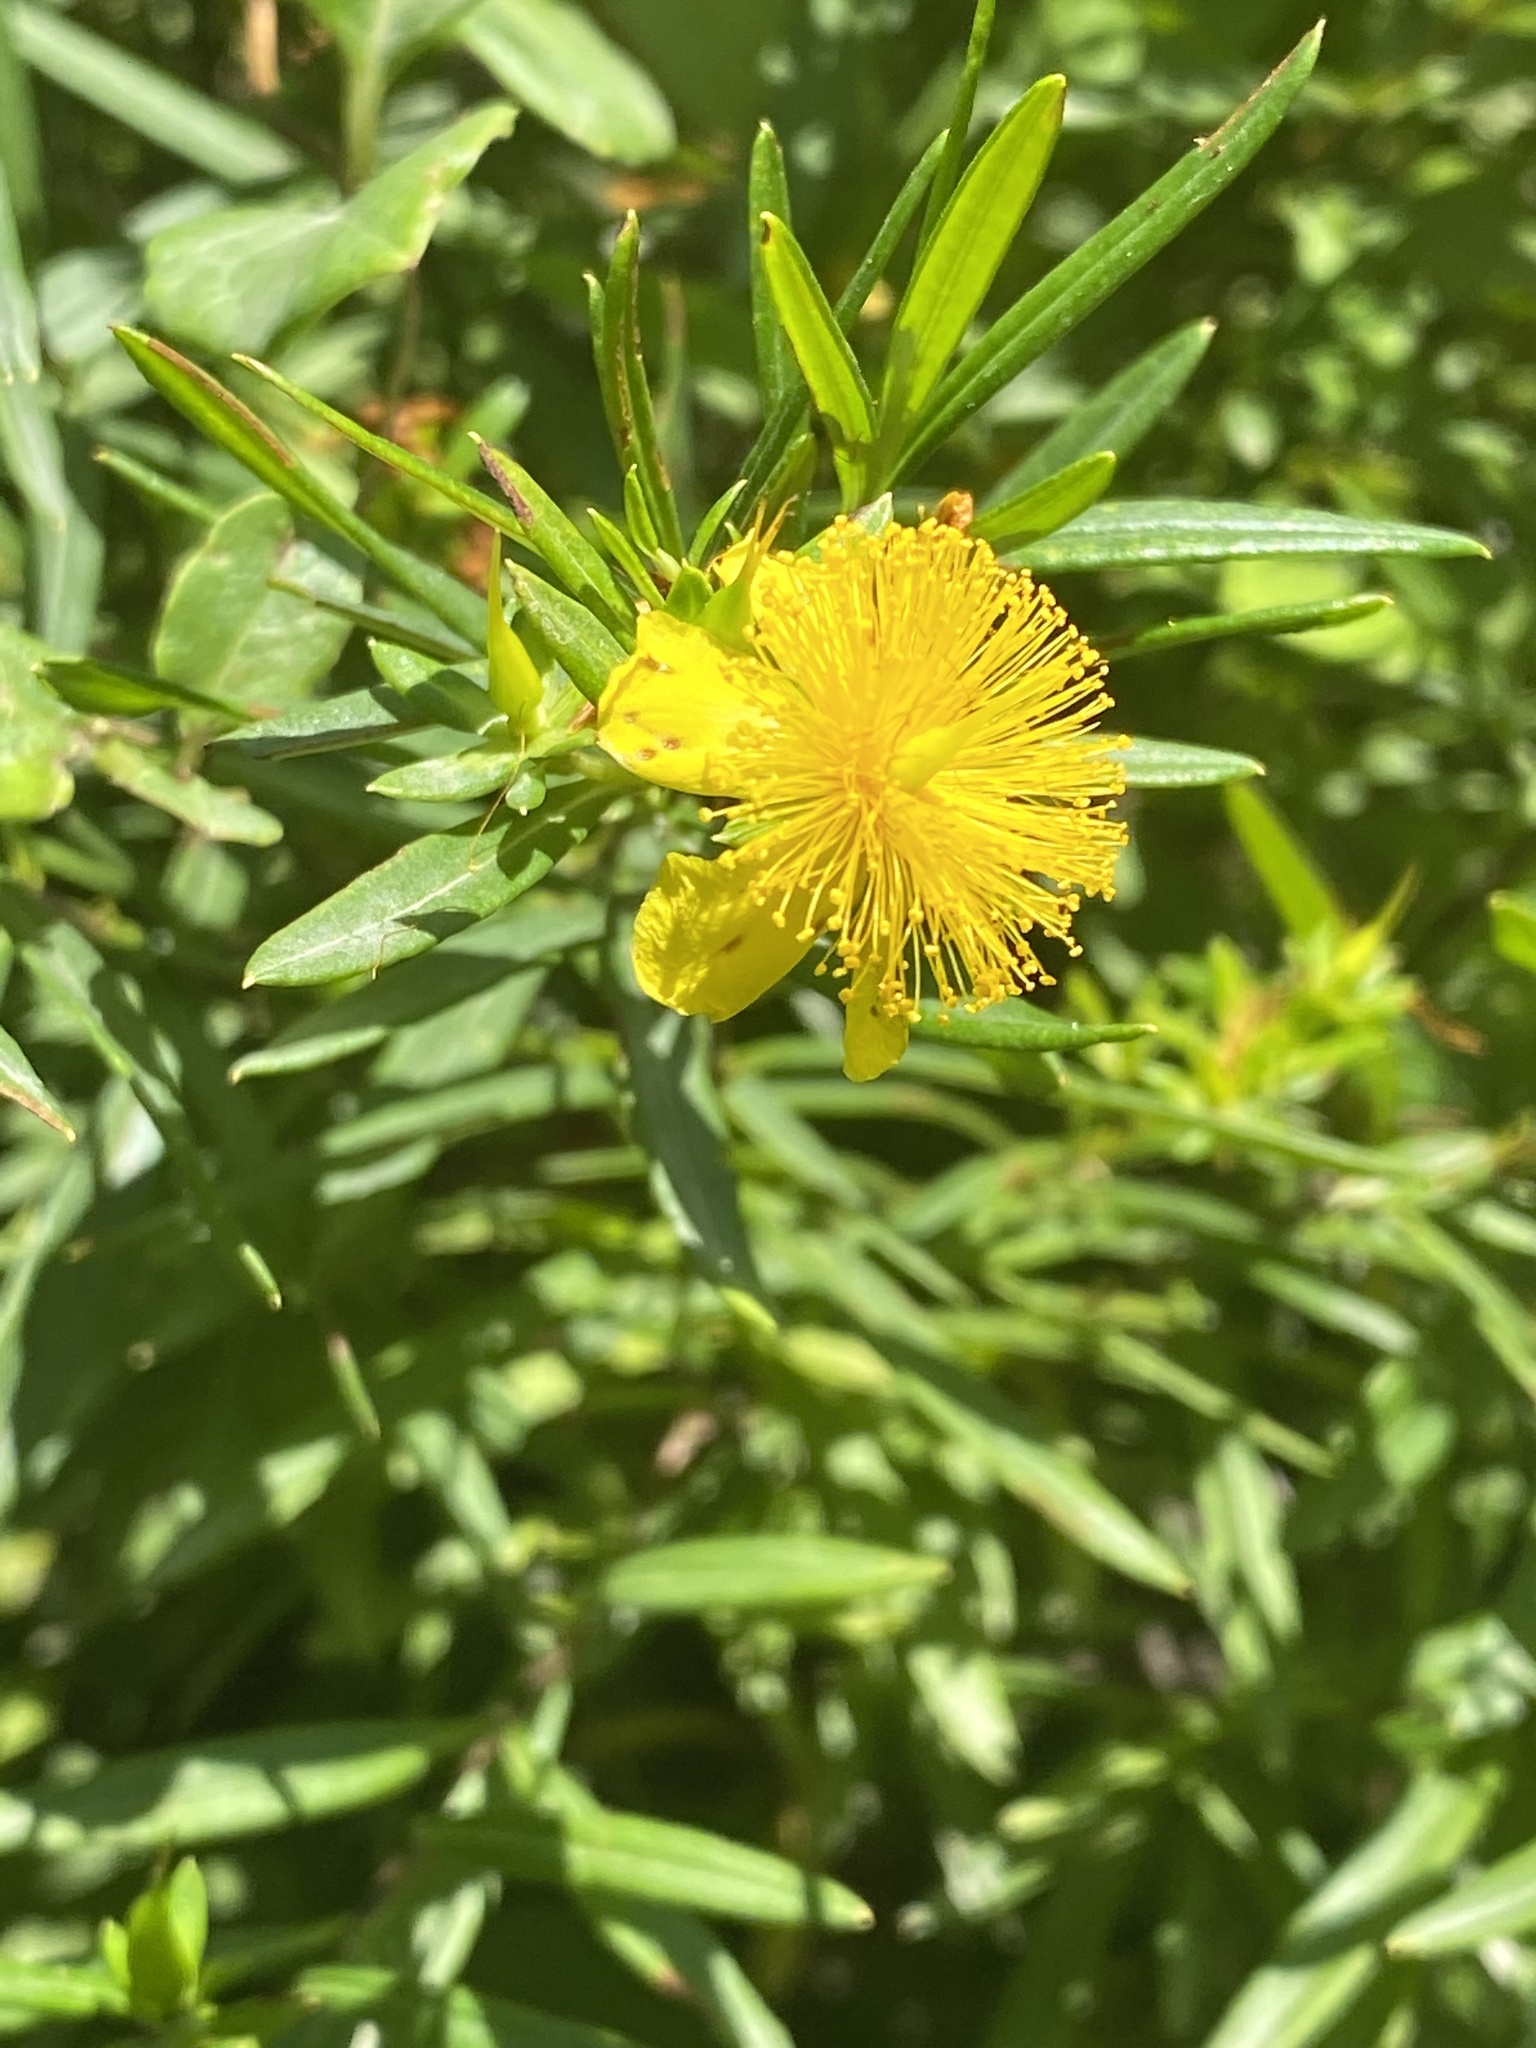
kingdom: Plantae
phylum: Tracheophyta
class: Magnoliopsida
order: Malpighiales
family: Hypericaceae
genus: Hypericum
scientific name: Hypericum prolificum
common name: Shrubby st. john's-wort
